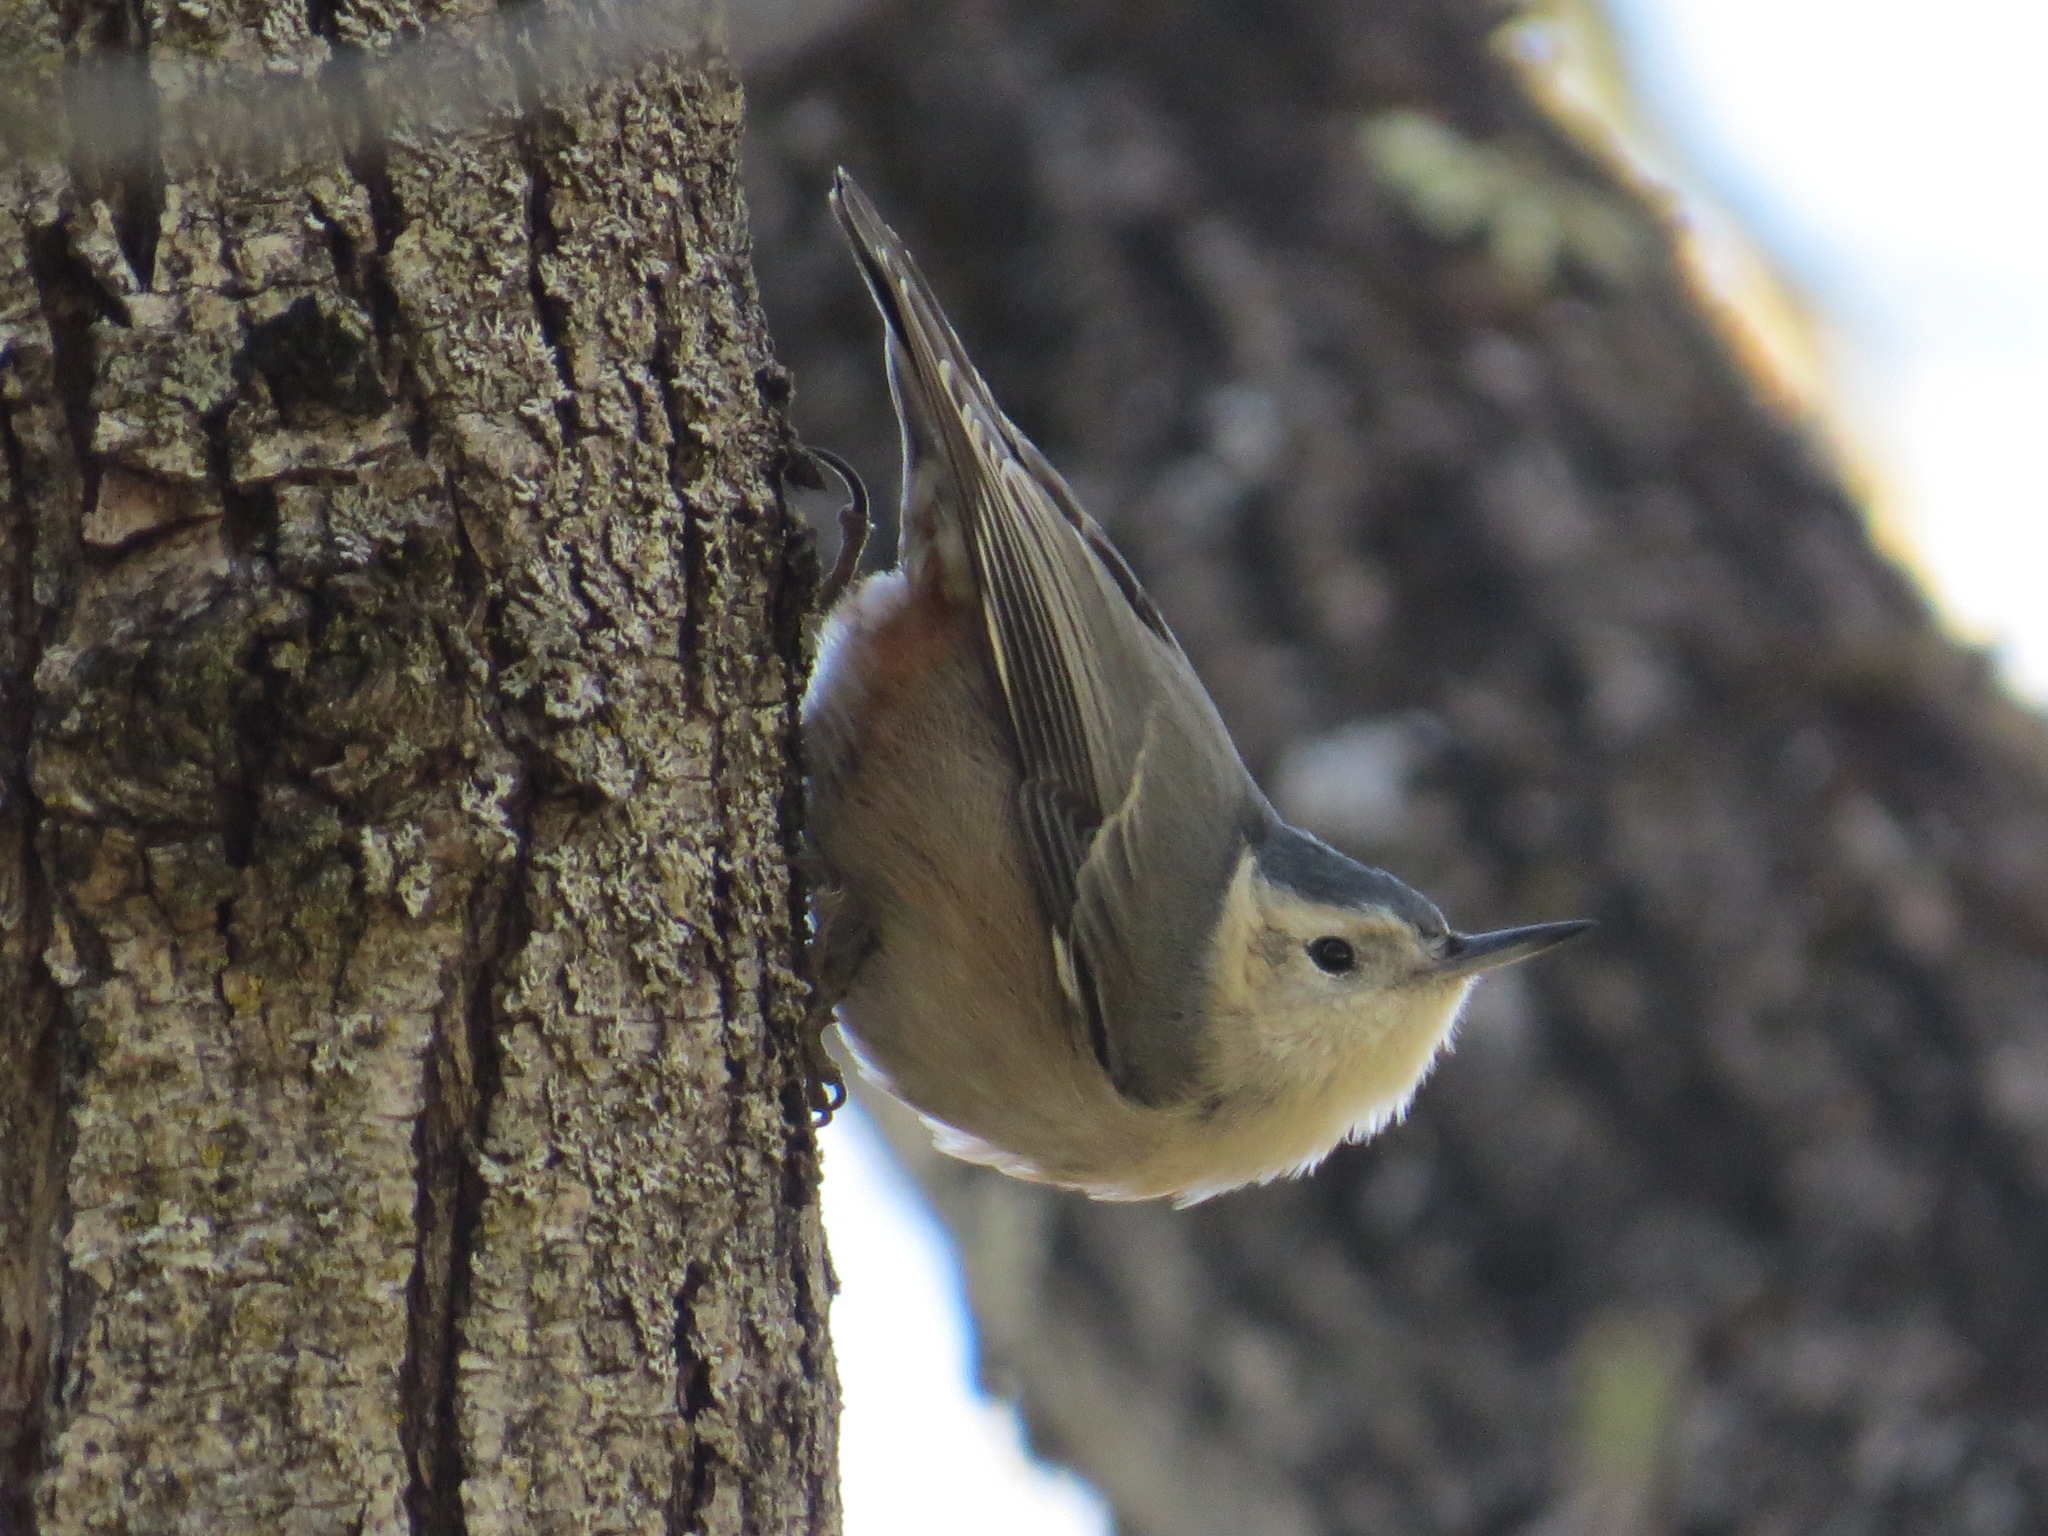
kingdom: Animalia
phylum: Chordata
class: Aves
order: Passeriformes
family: Sittidae
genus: Sitta
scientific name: Sitta carolinensis
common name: White-breasted nuthatch
